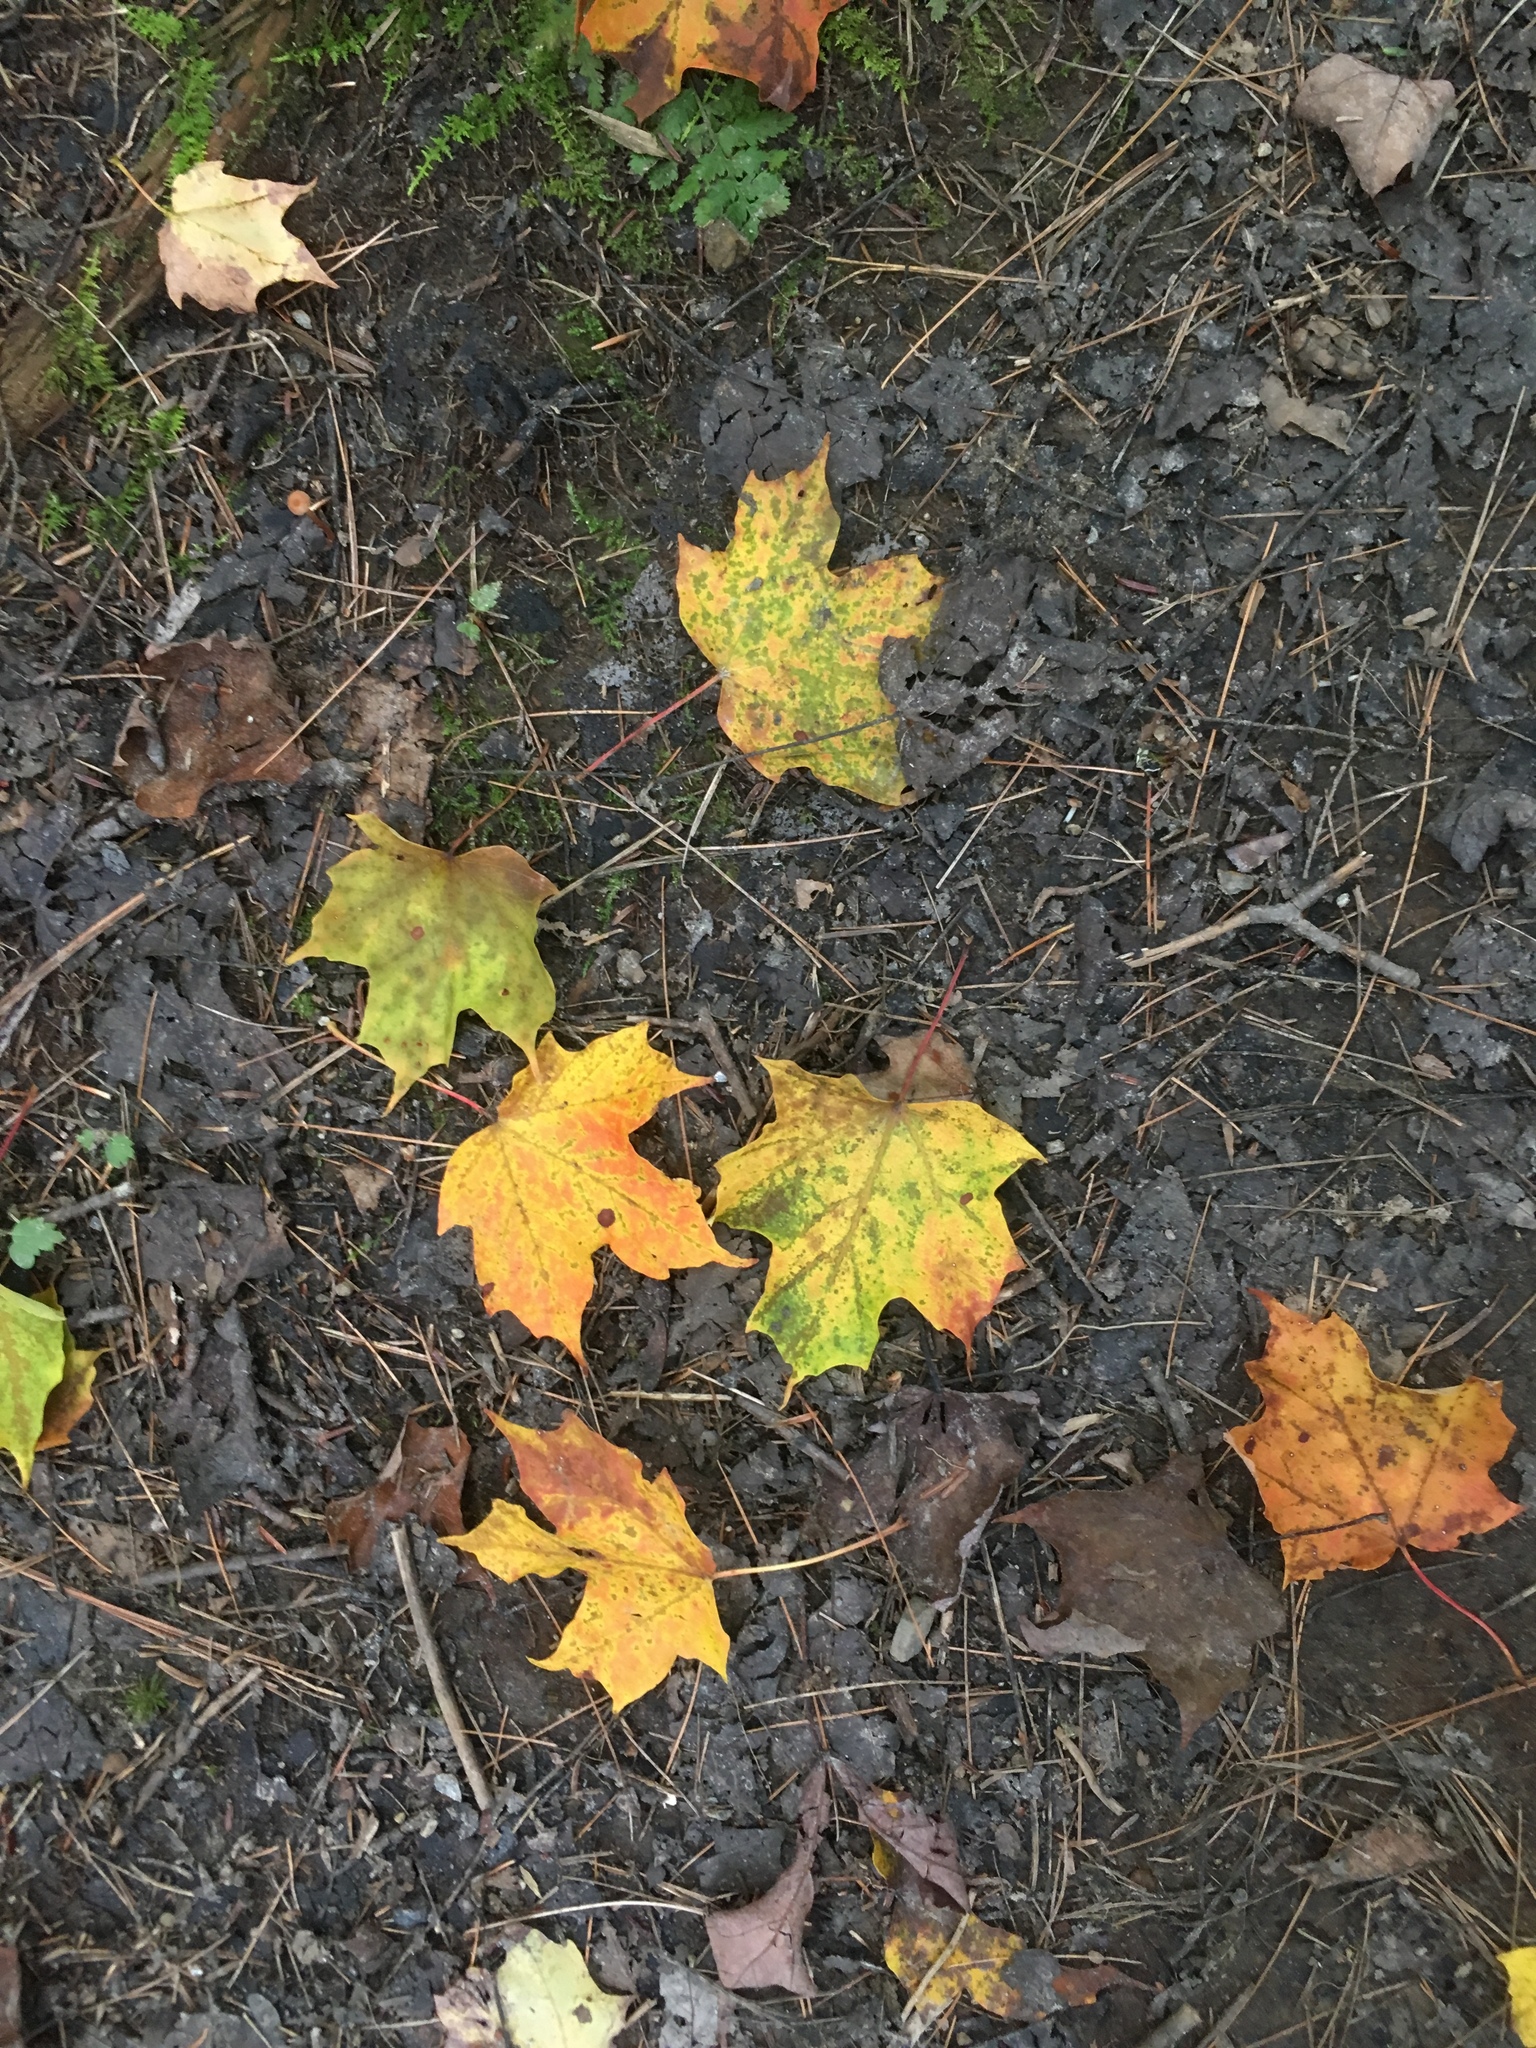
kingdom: Plantae
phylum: Tracheophyta
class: Magnoliopsida
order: Sapindales
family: Sapindaceae
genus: Acer
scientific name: Acer saccharum
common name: Sugar maple
